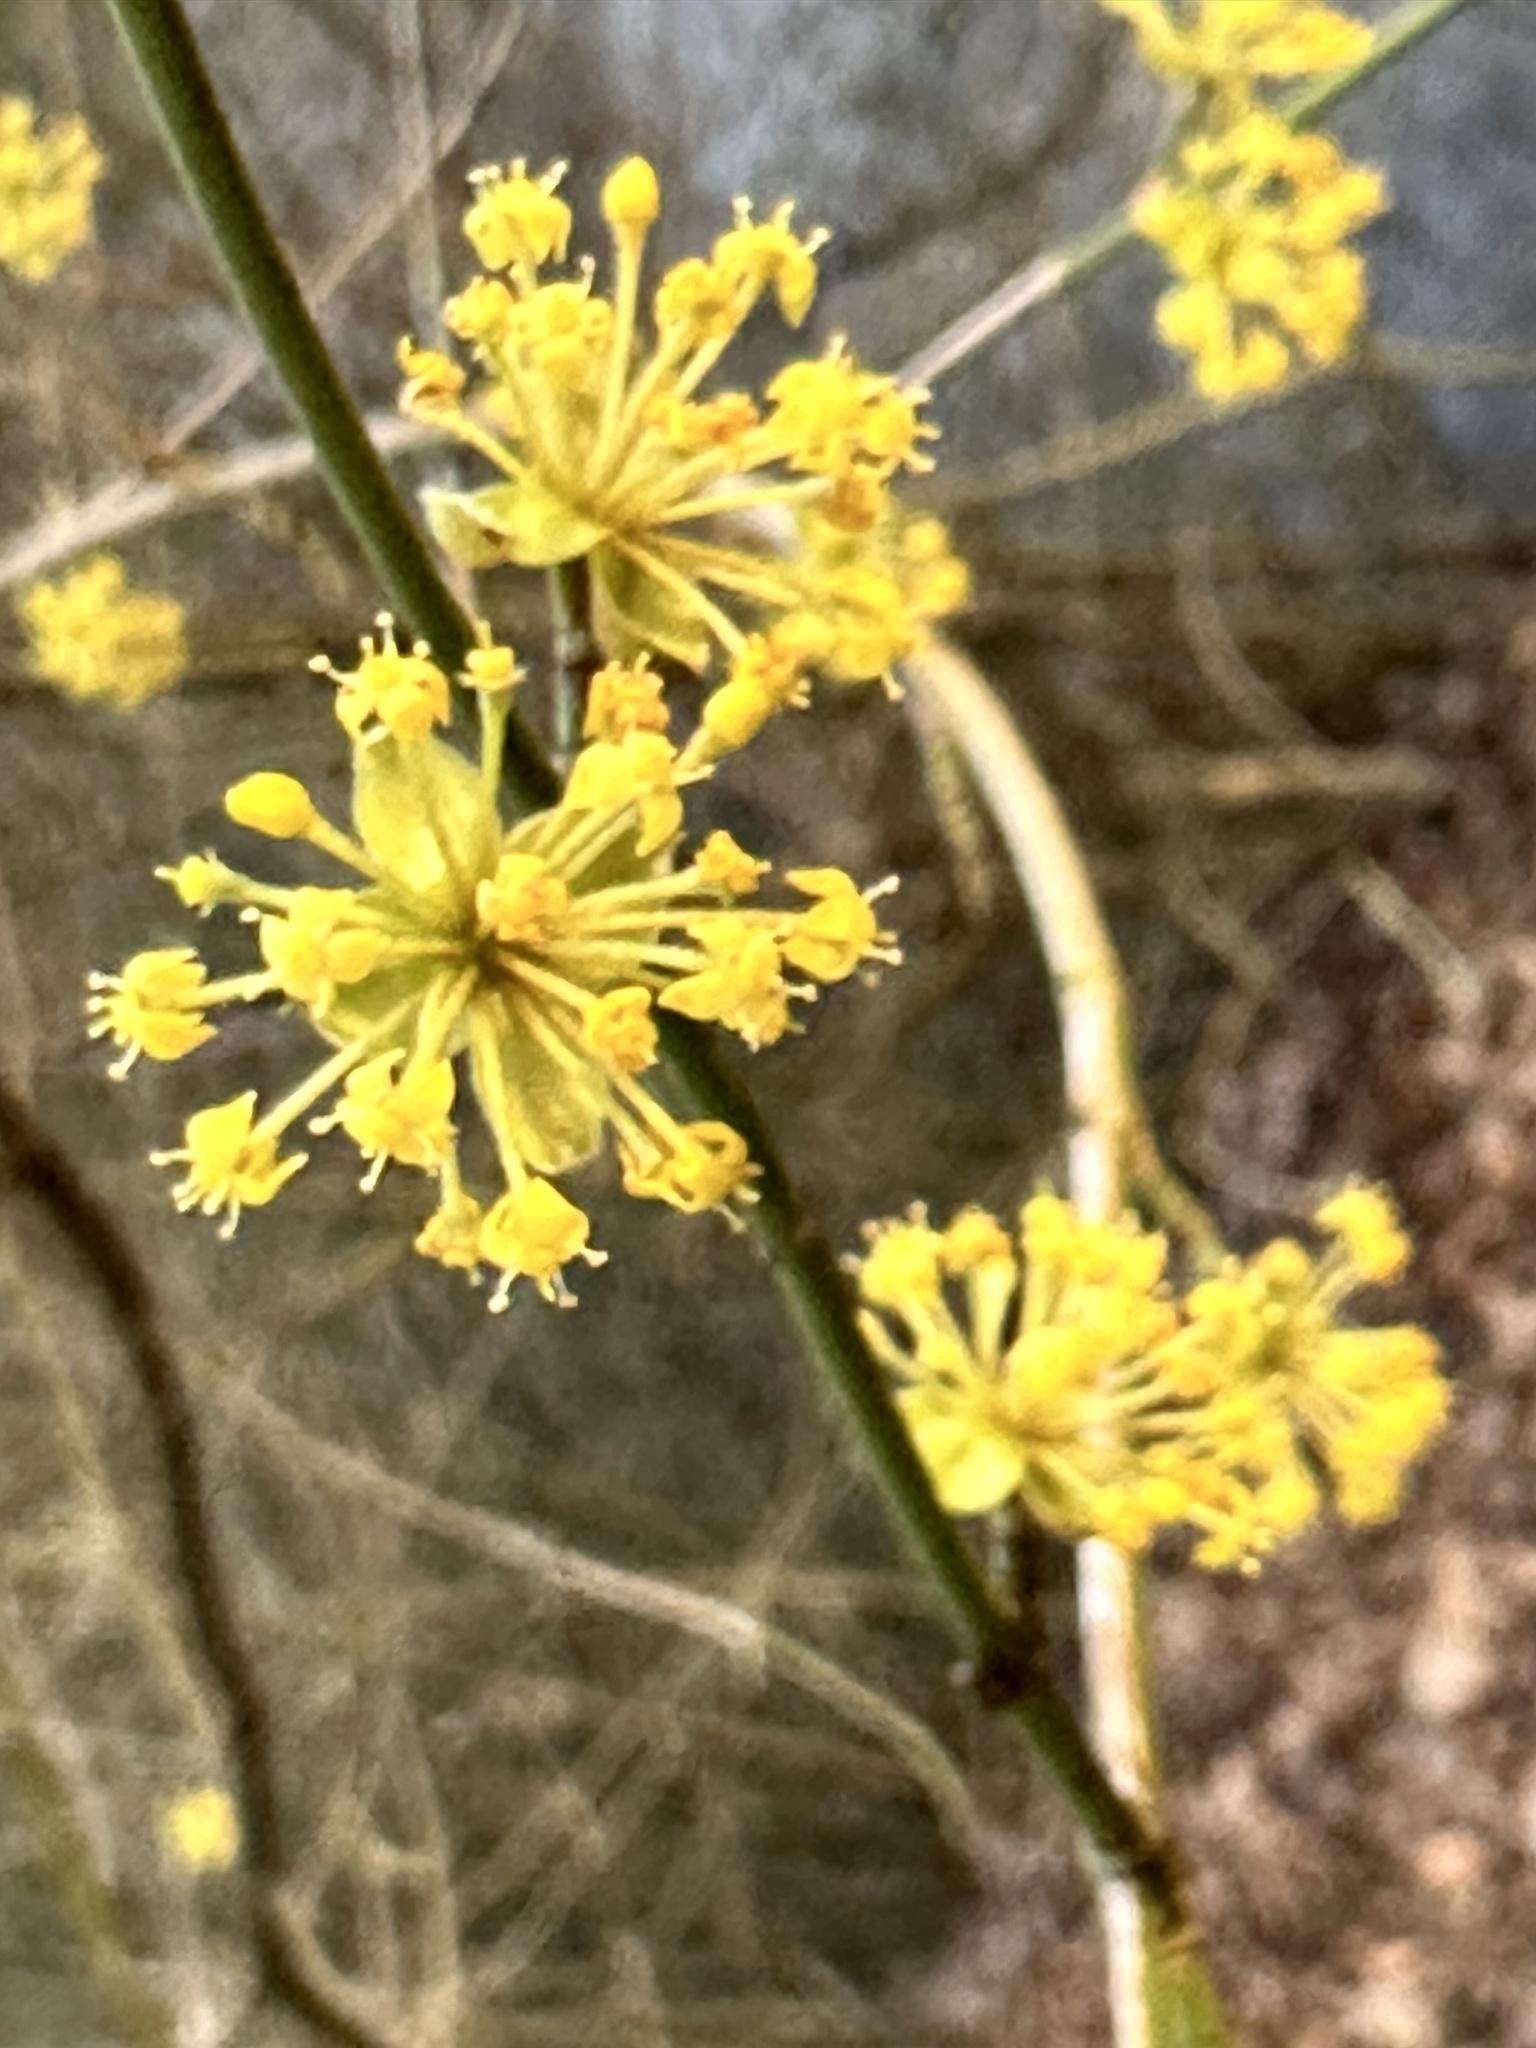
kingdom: Plantae
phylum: Tracheophyta
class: Magnoliopsida
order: Cornales
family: Cornaceae
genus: Cornus
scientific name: Cornus mas
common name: Cornelian-cherry
